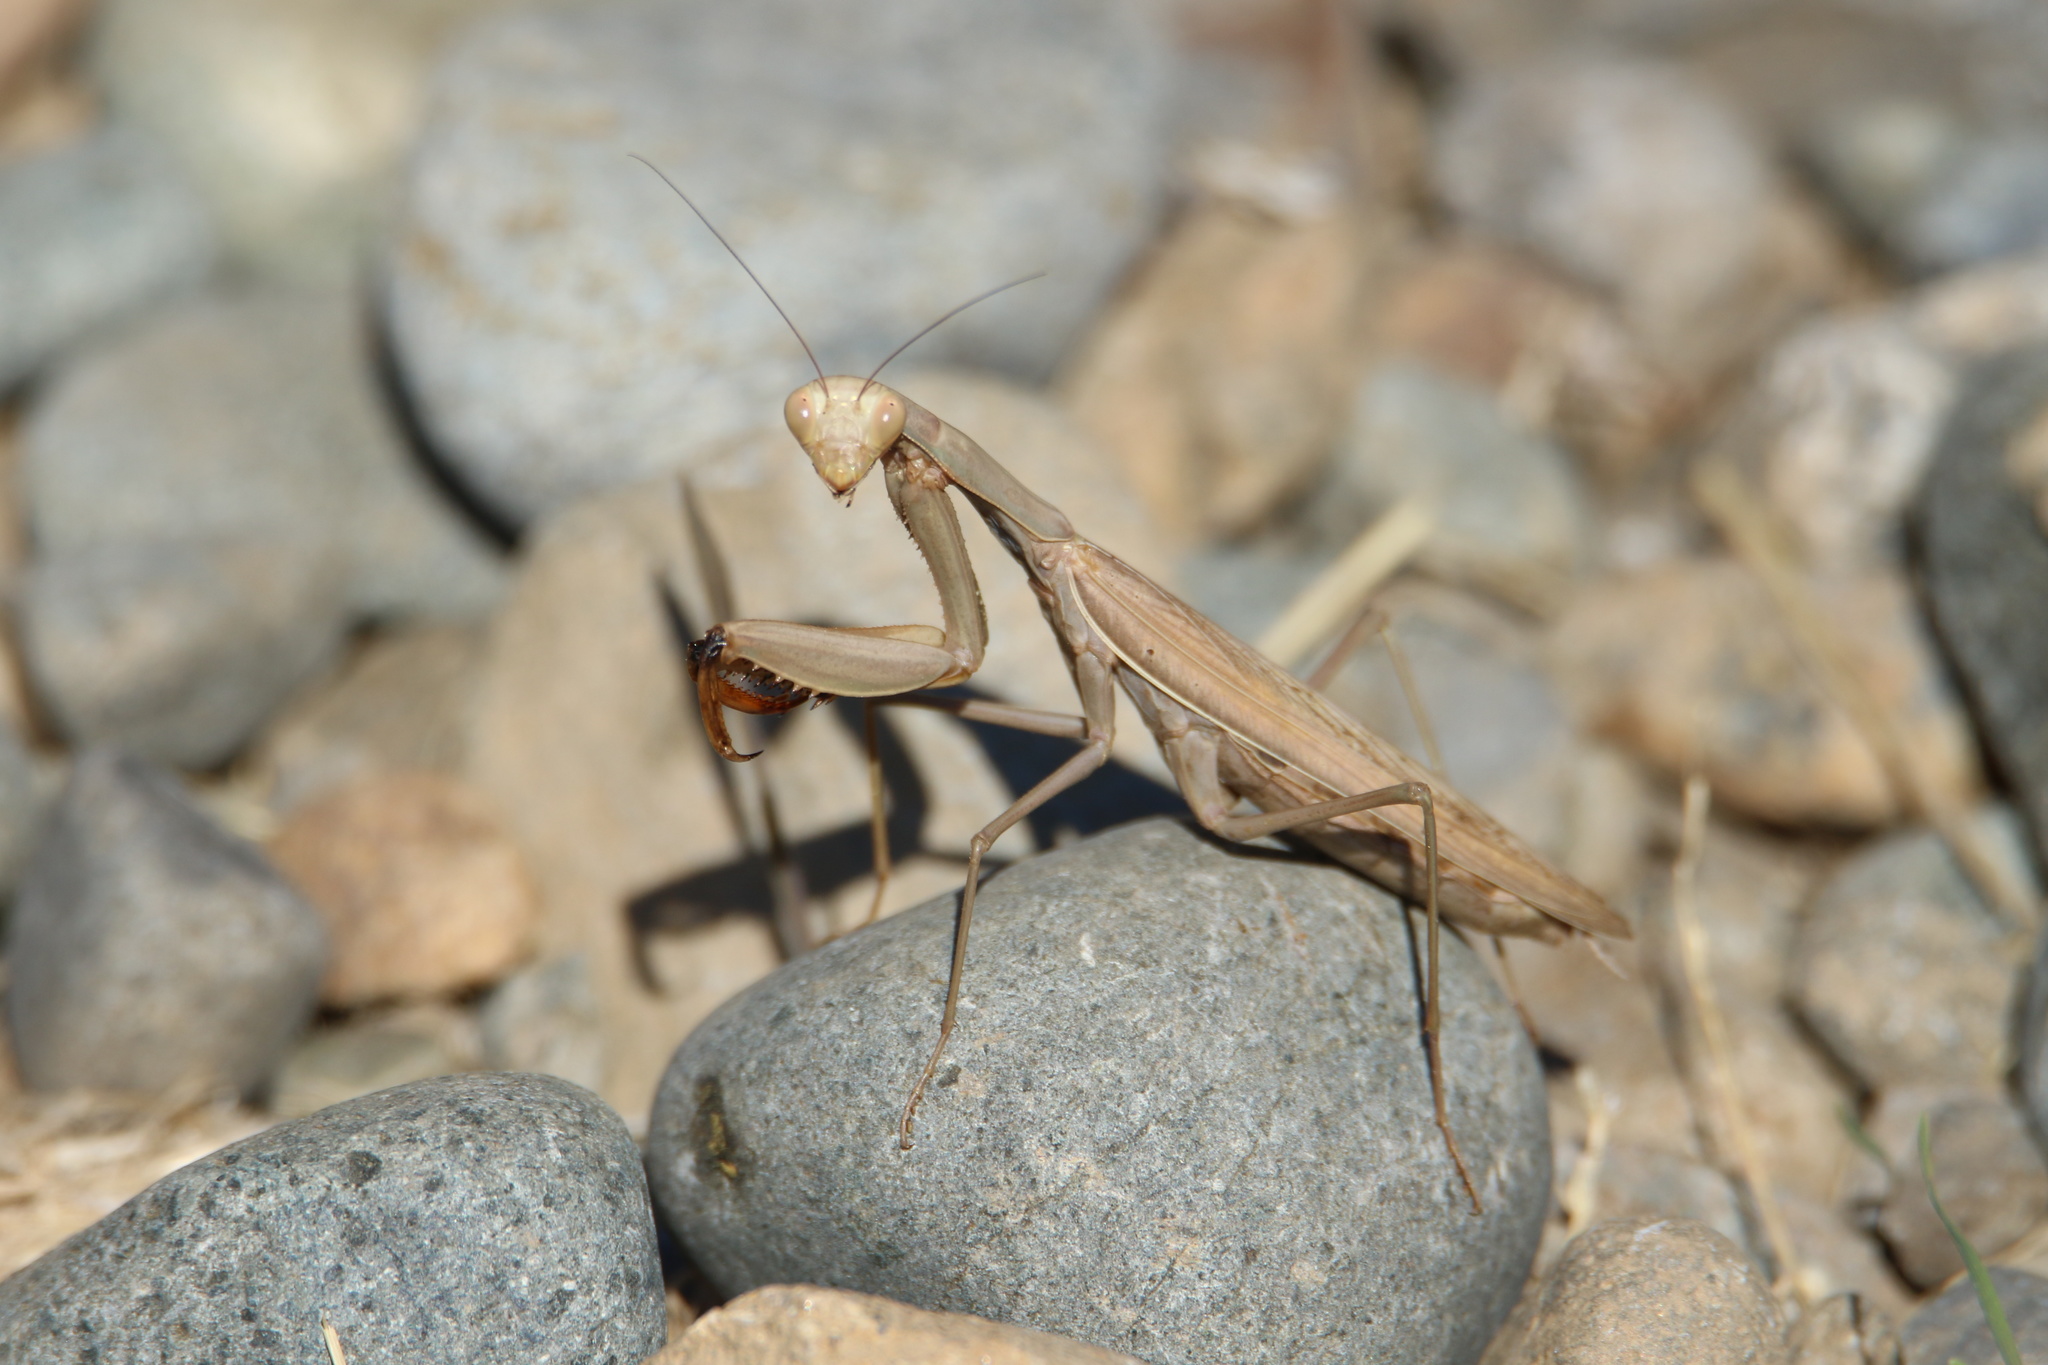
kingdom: Animalia
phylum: Arthropoda
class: Insecta
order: Mantodea
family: Mantidae
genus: Mantis
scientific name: Mantis religiosa
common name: Praying mantis
